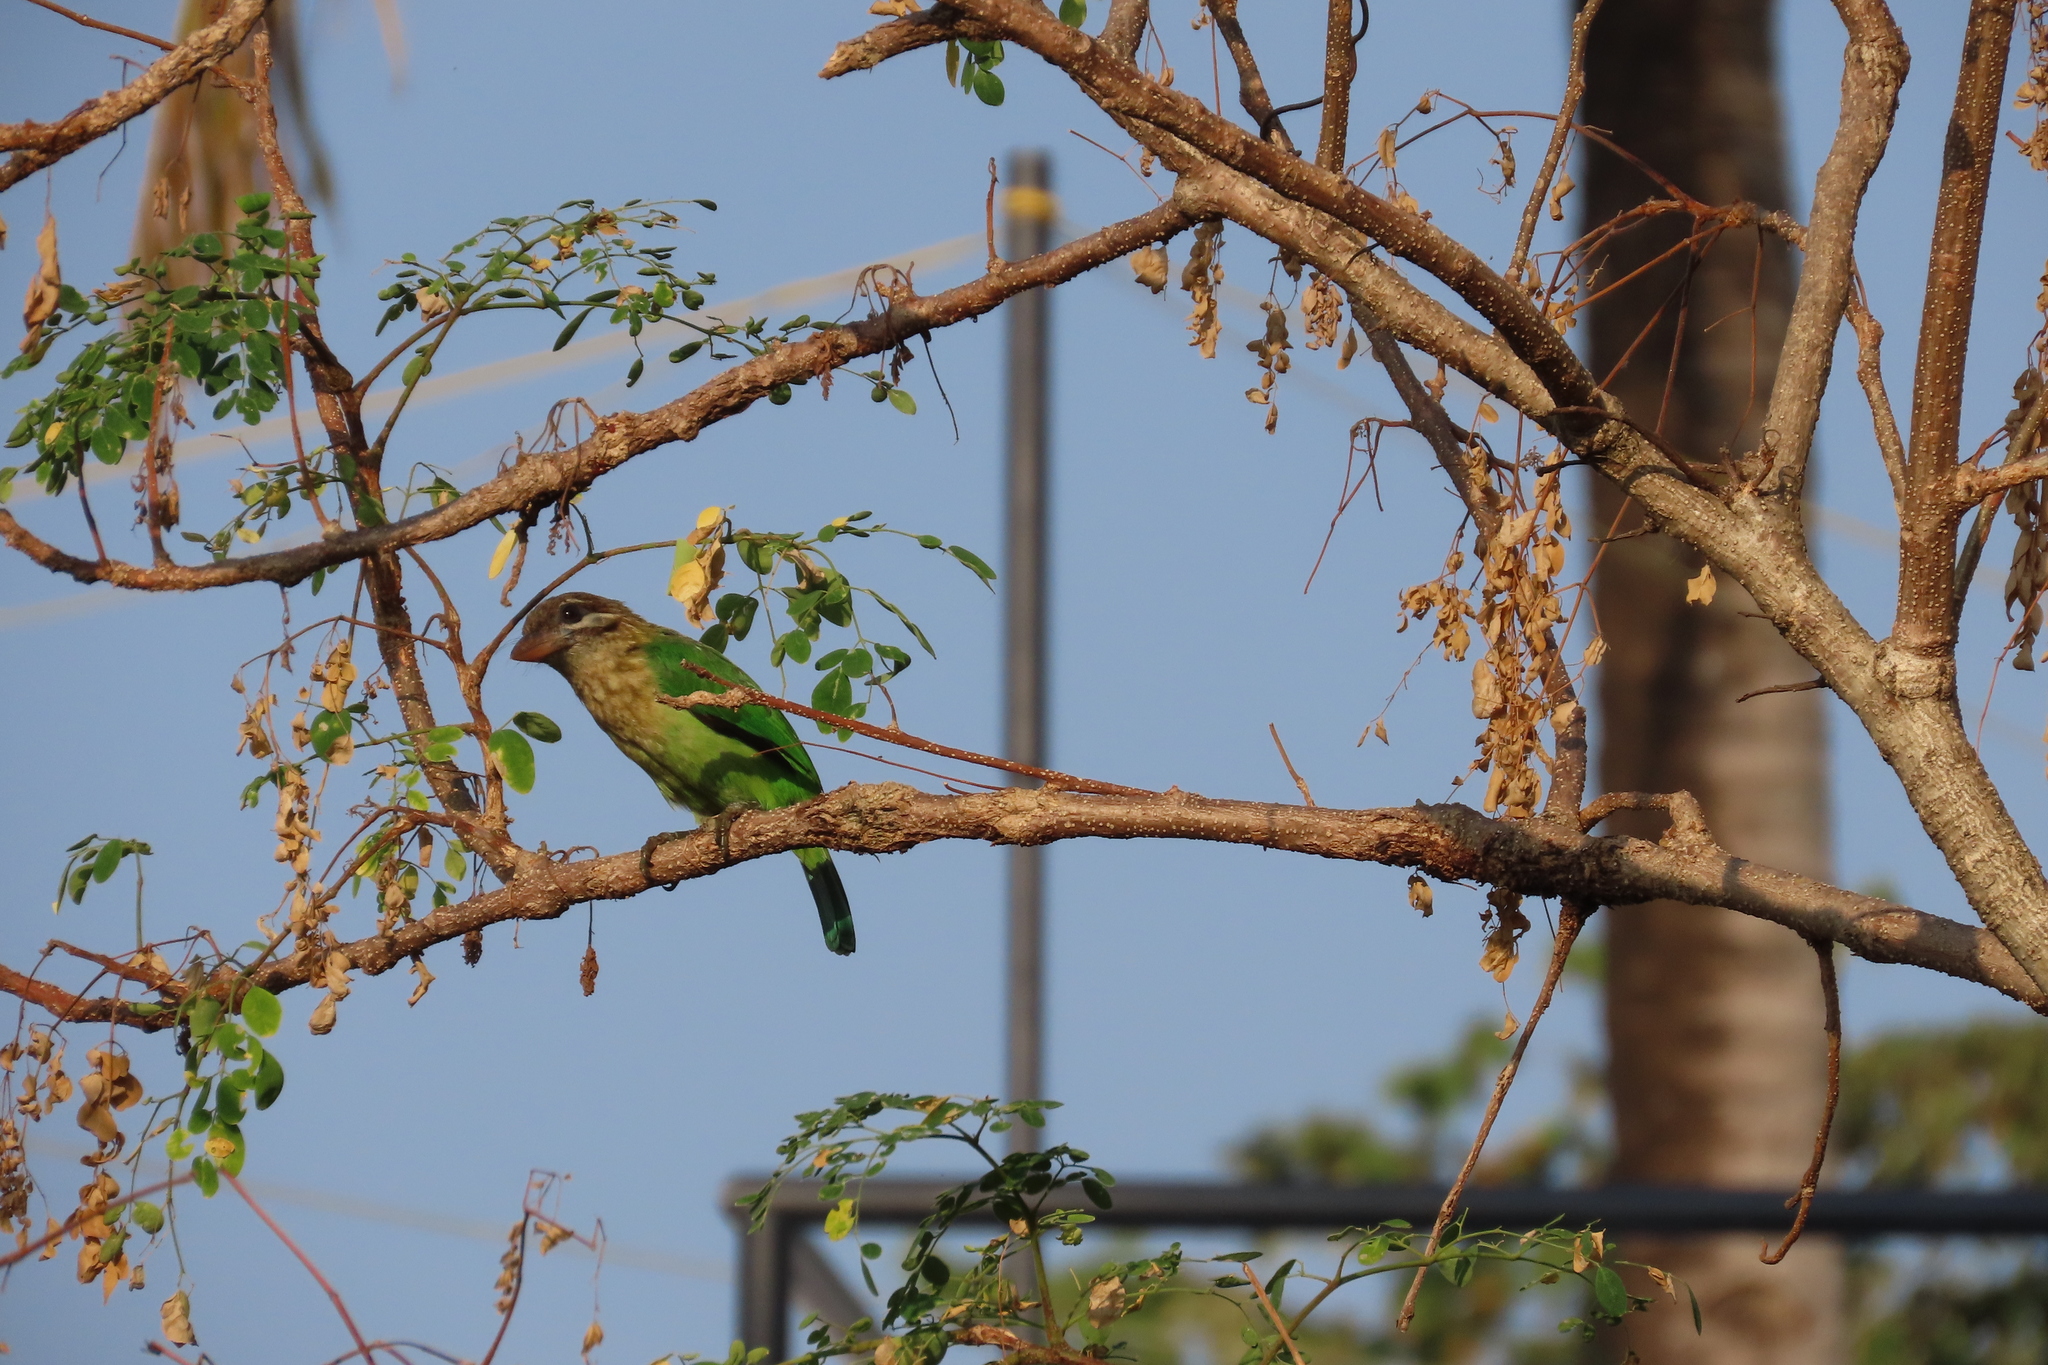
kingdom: Animalia
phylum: Chordata
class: Aves
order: Piciformes
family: Megalaimidae
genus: Psilopogon
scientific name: Psilopogon viridis
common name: White-cheeked barbet
